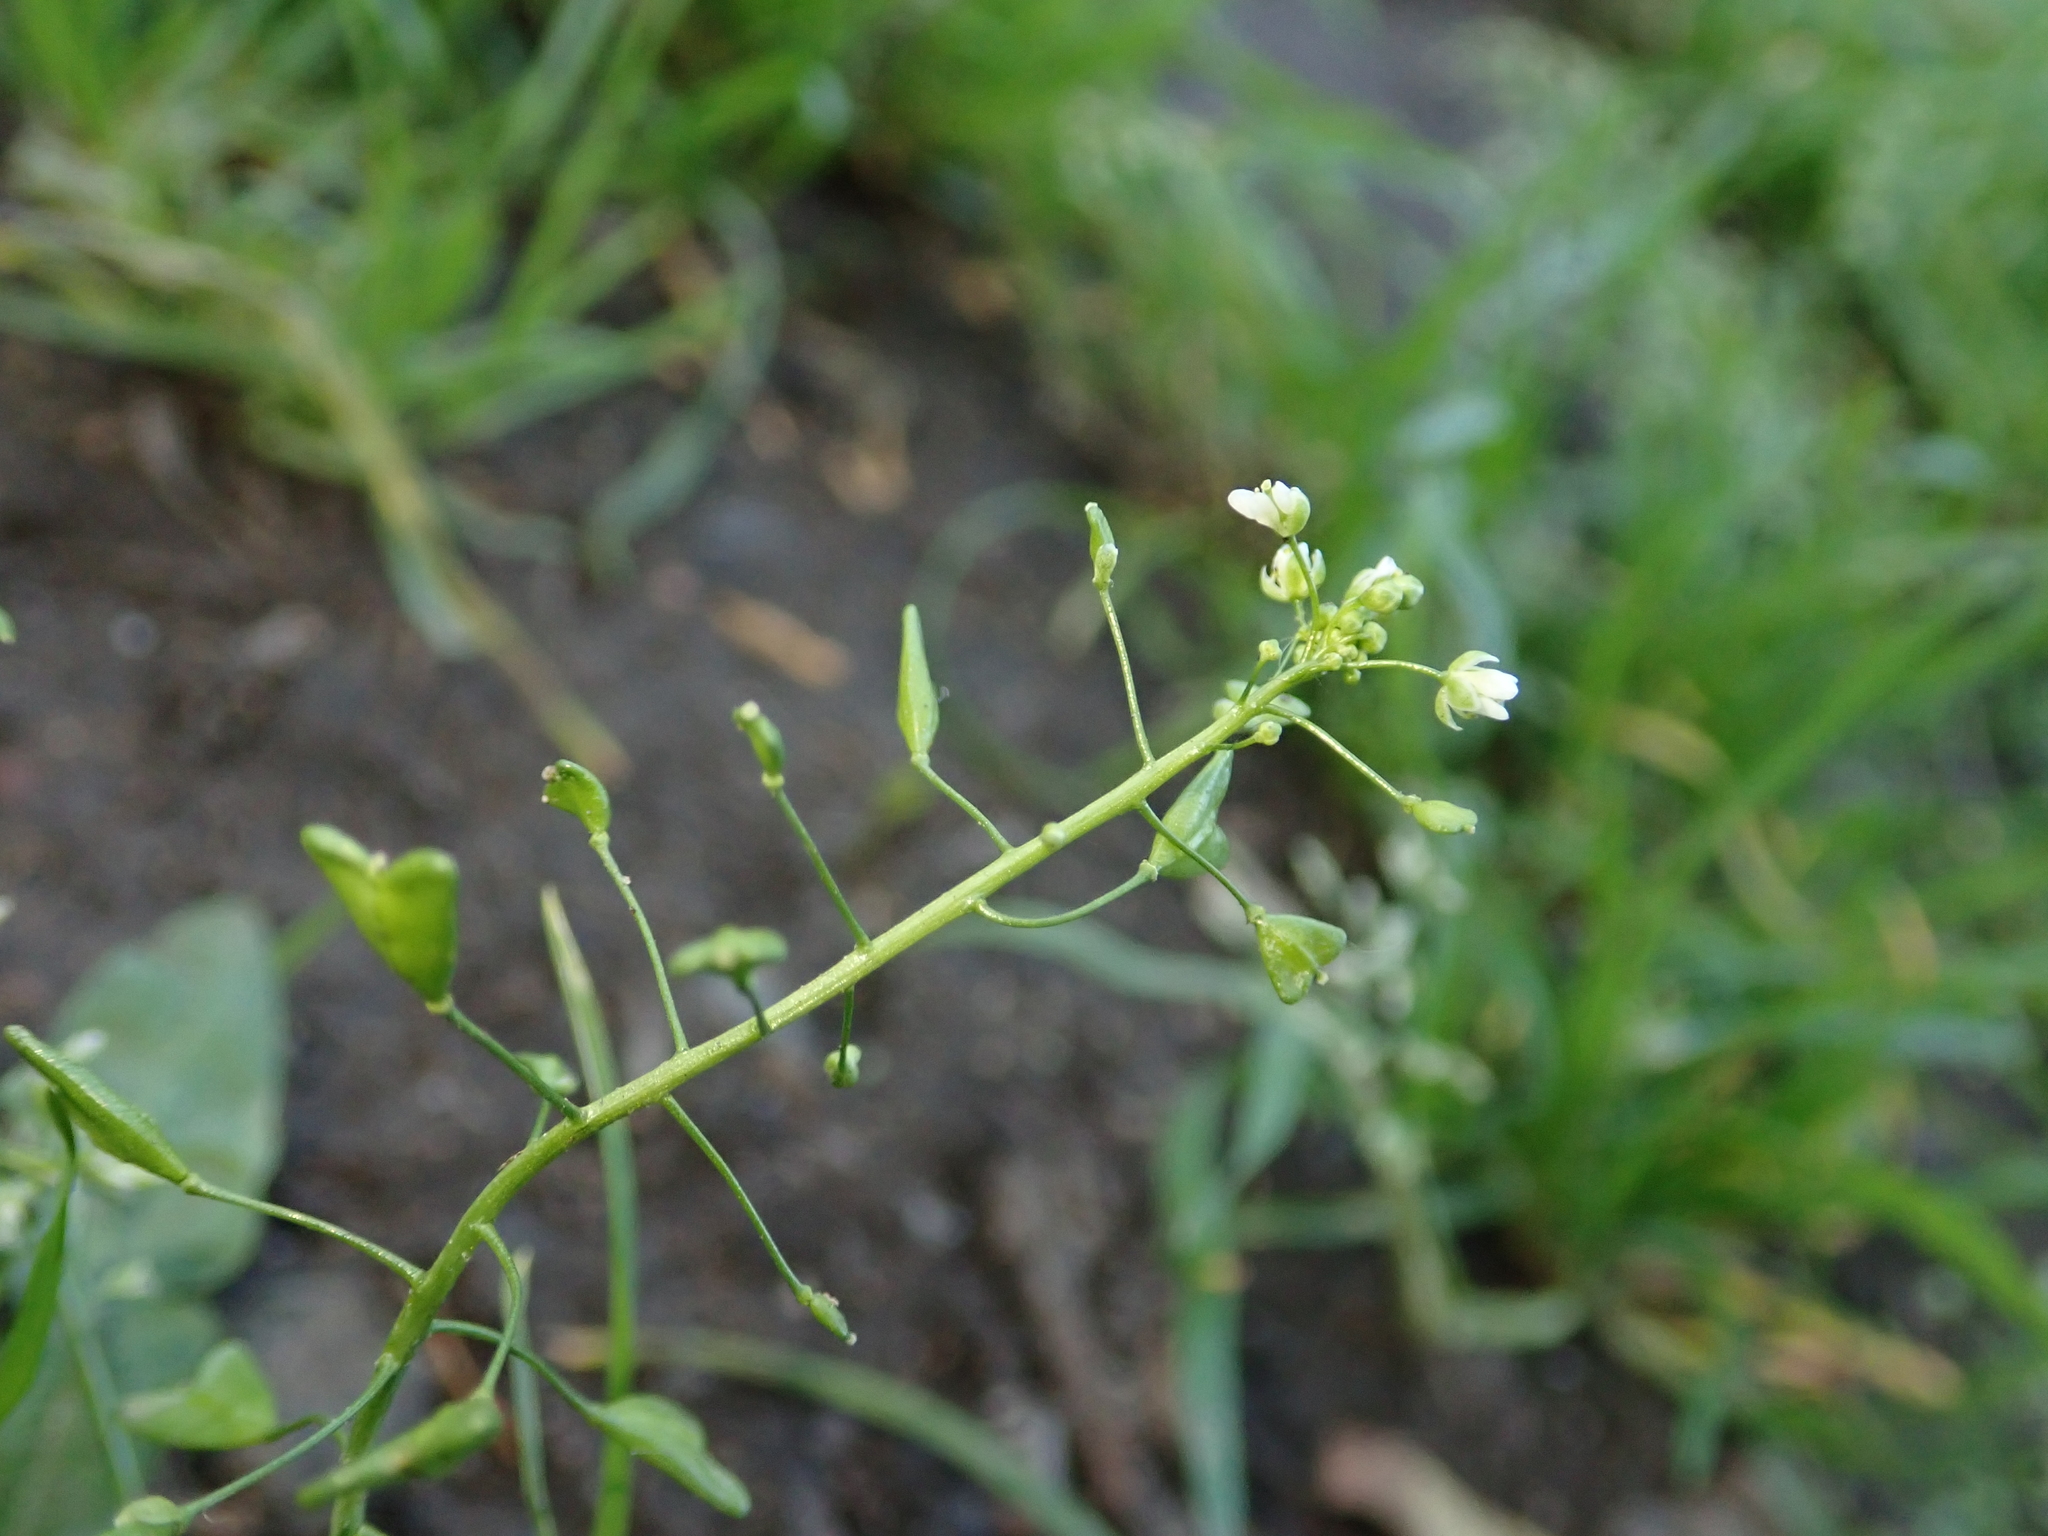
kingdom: Plantae
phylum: Tracheophyta
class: Magnoliopsida
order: Brassicales
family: Brassicaceae
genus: Capsella
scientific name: Capsella bursa-pastoris
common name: Shepherd's purse
